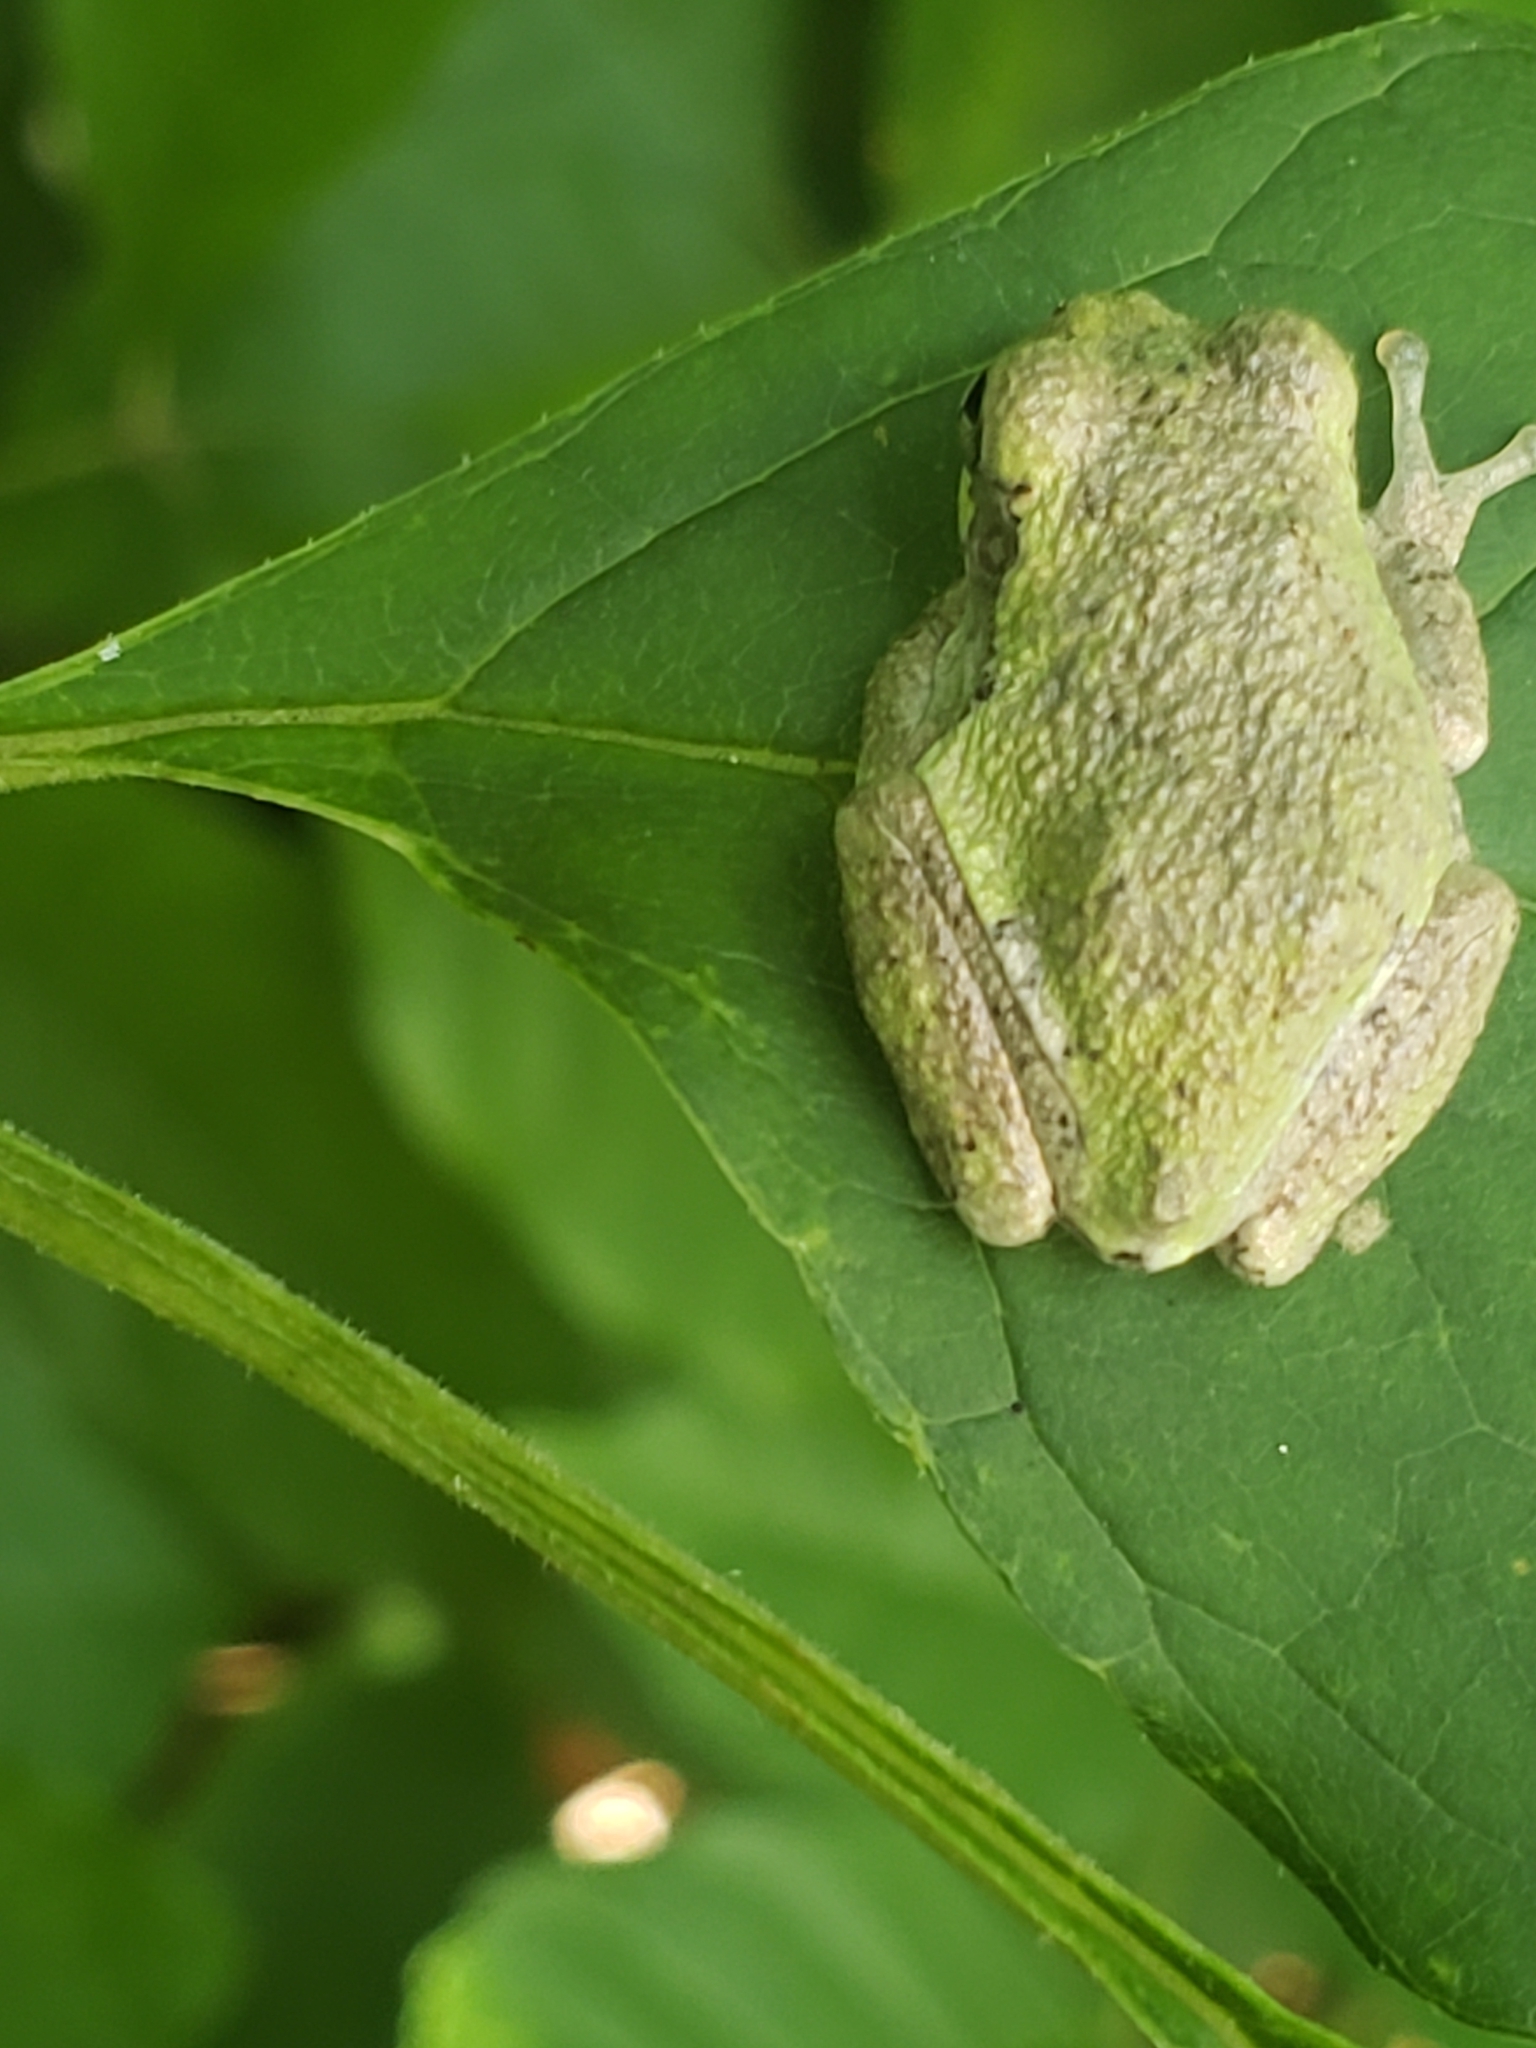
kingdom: Animalia
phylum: Chordata
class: Amphibia
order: Anura
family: Hylidae
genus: Hyla
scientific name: Hyla
